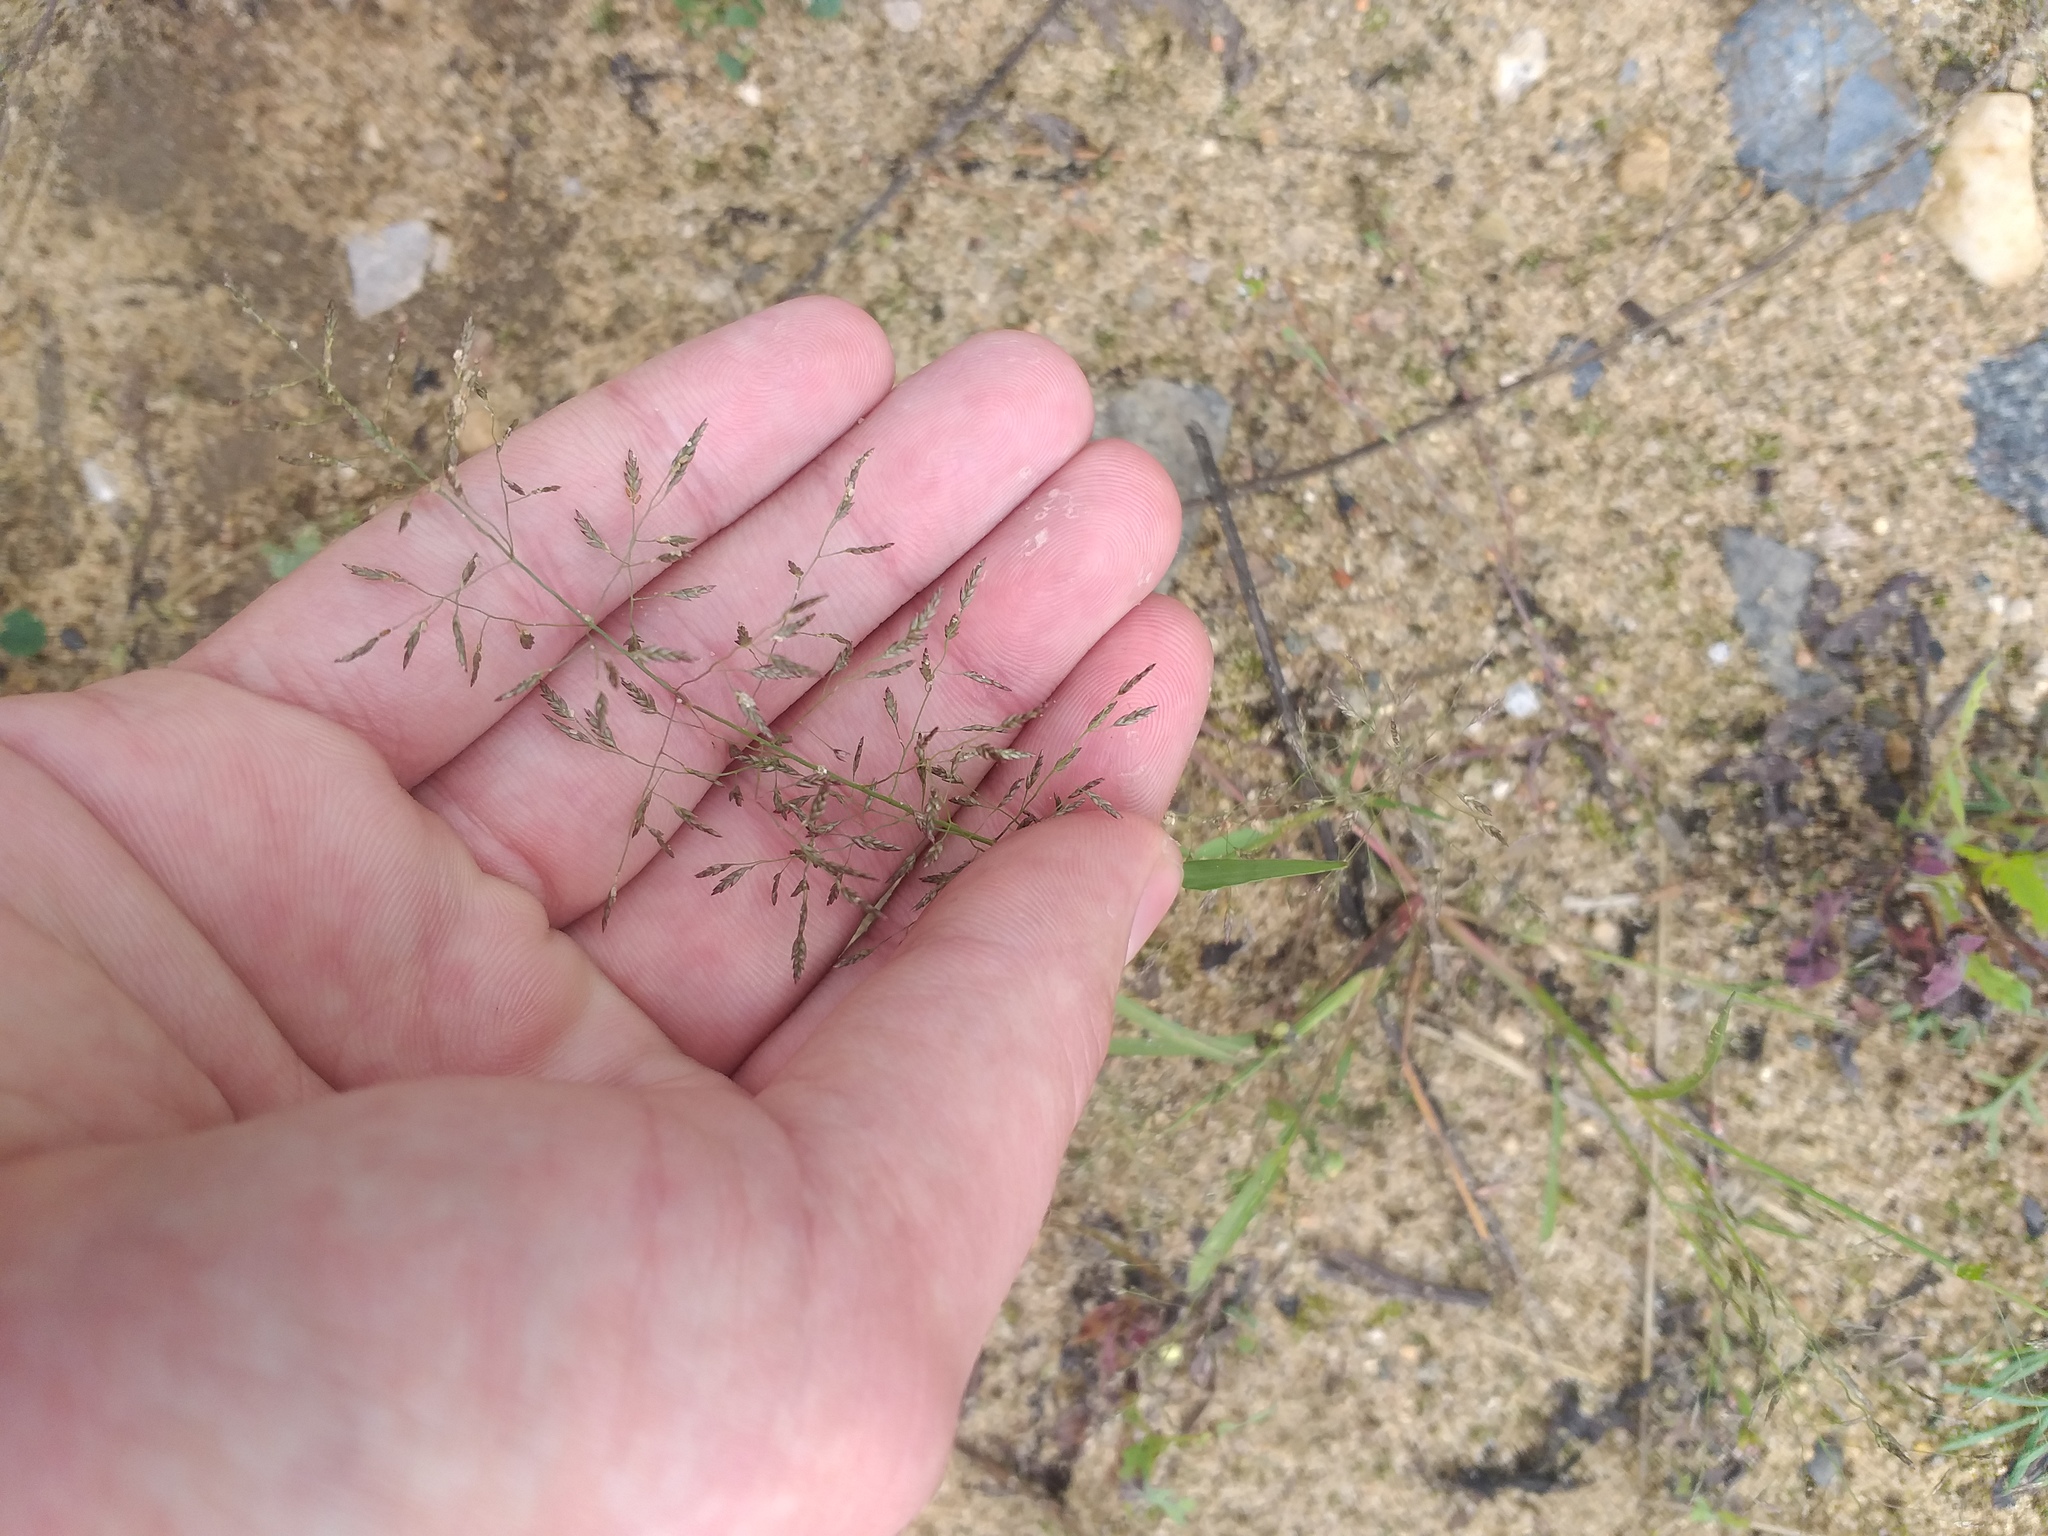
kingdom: Plantae
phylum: Tracheophyta
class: Liliopsida
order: Poales
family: Poaceae
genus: Eragrostis
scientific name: Eragrostis minor
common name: Small love-grass
